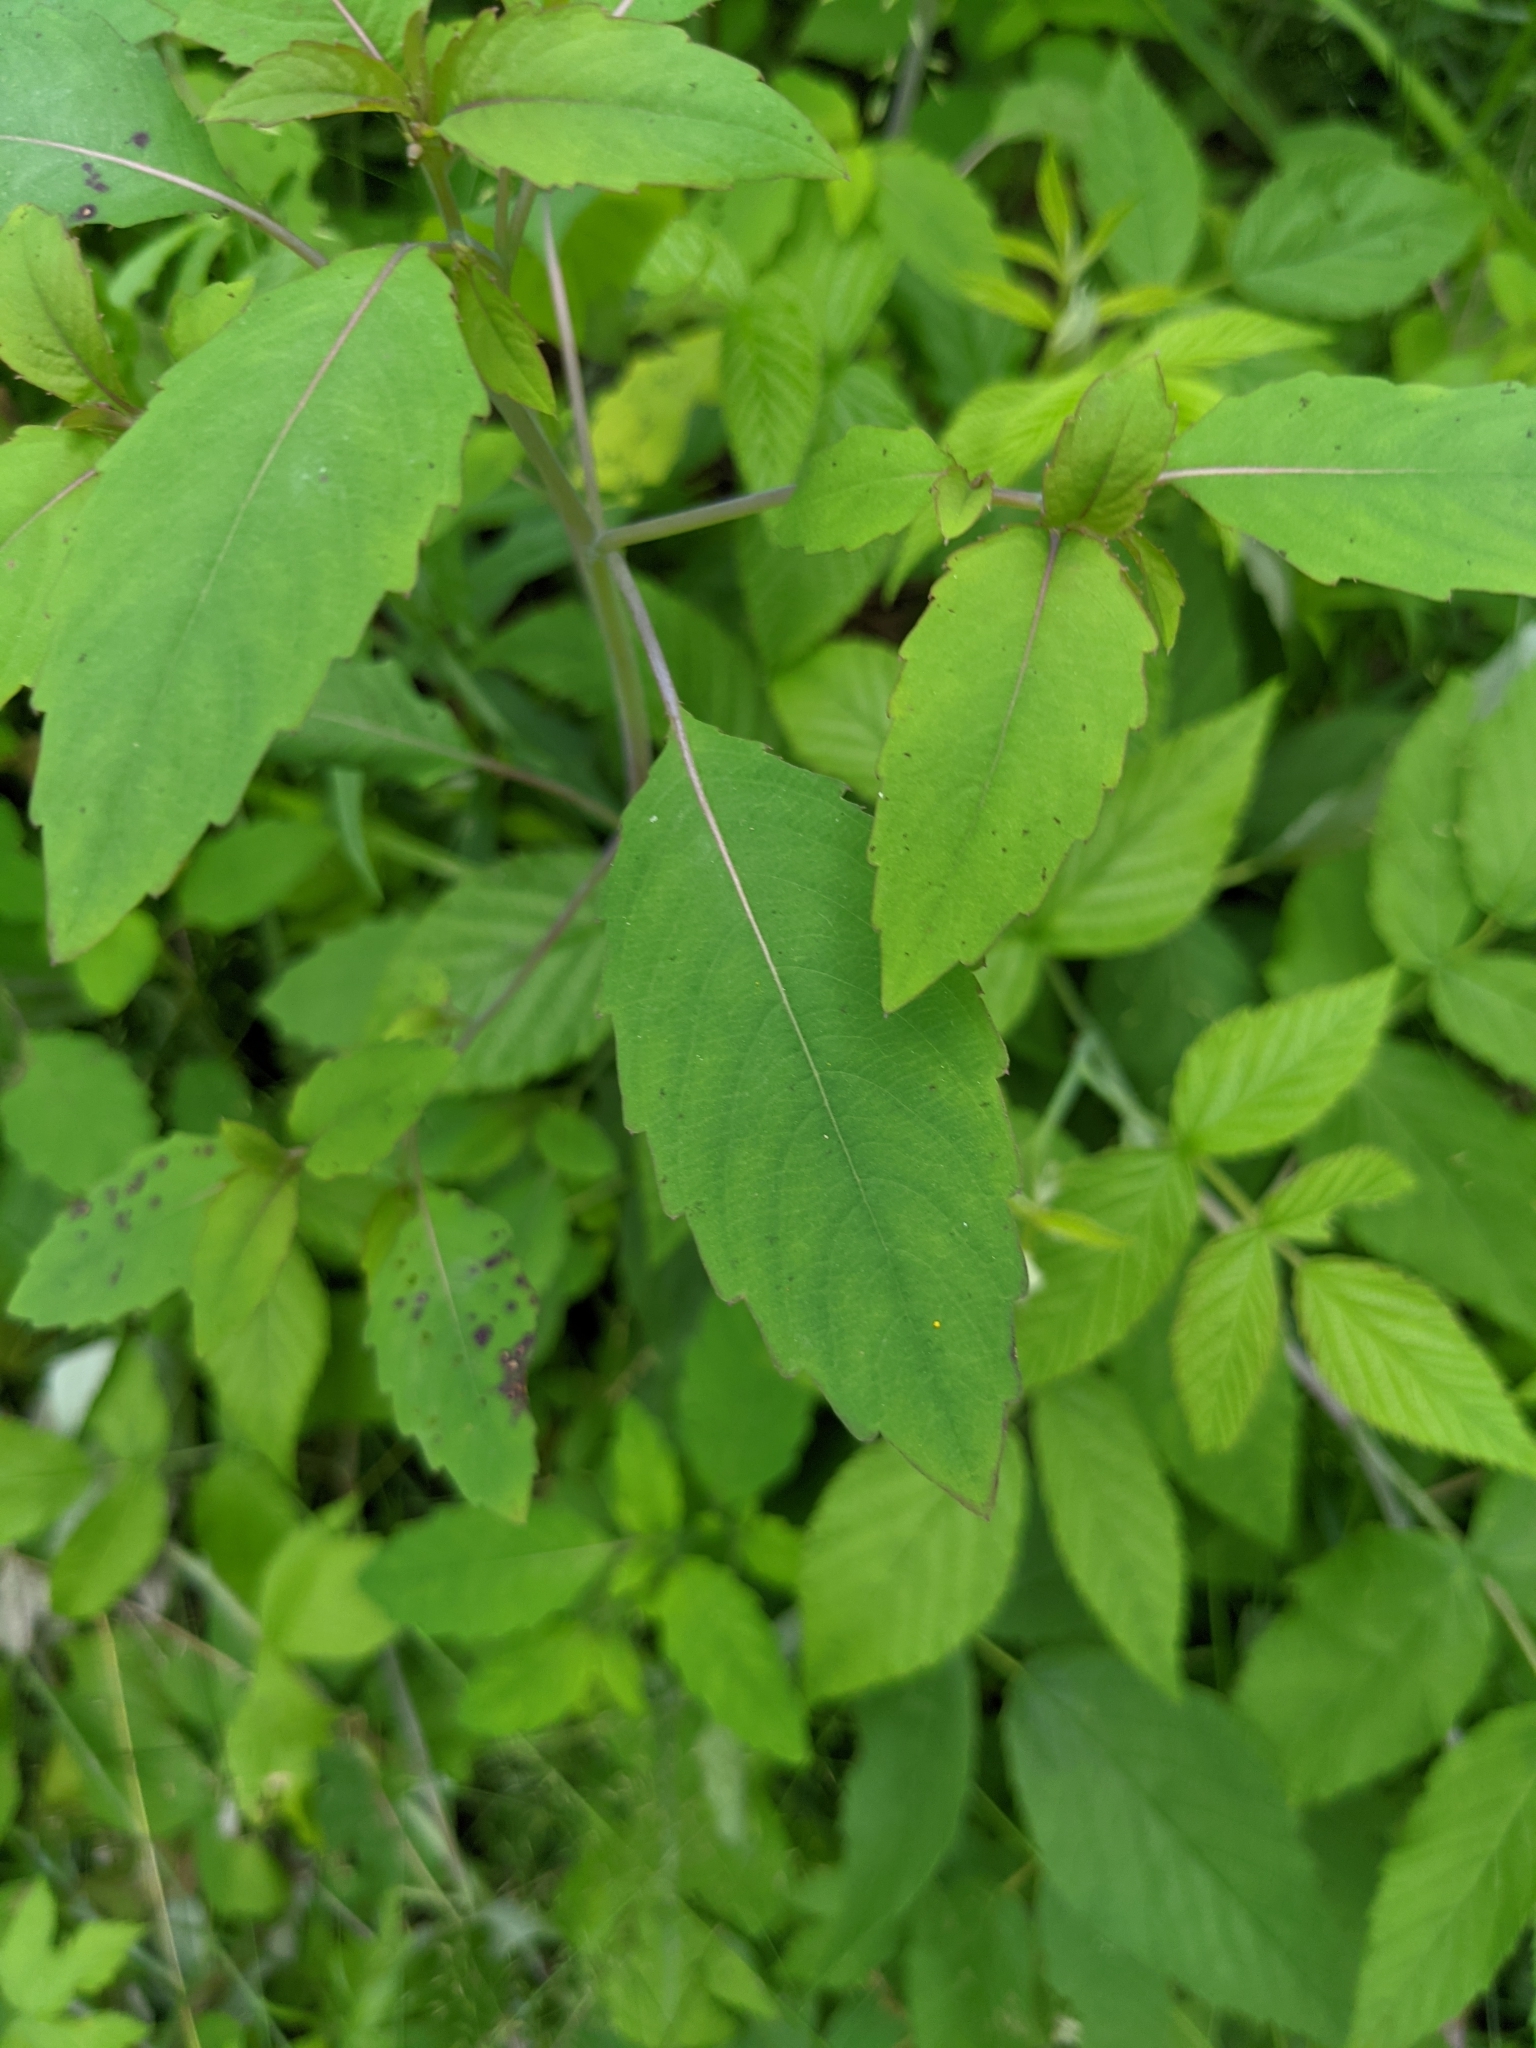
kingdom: Plantae
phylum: Tracheophyta
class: Magnoliopsida
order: Ericales
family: Balsaminaceae
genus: Impatiens
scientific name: Impatiens capensis
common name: Orange balsam
